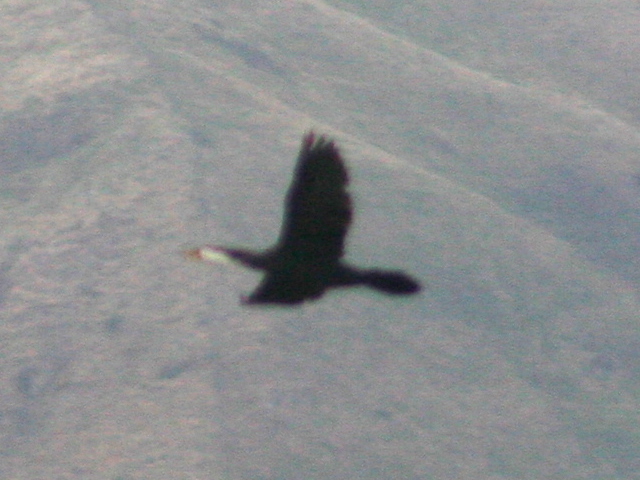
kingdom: Animalia
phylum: Chordata
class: Aves
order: Suliformes
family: Phalacrocoracidae
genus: Microcarbo
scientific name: Microcarbo melanoleucos
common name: Little pied cormorant
